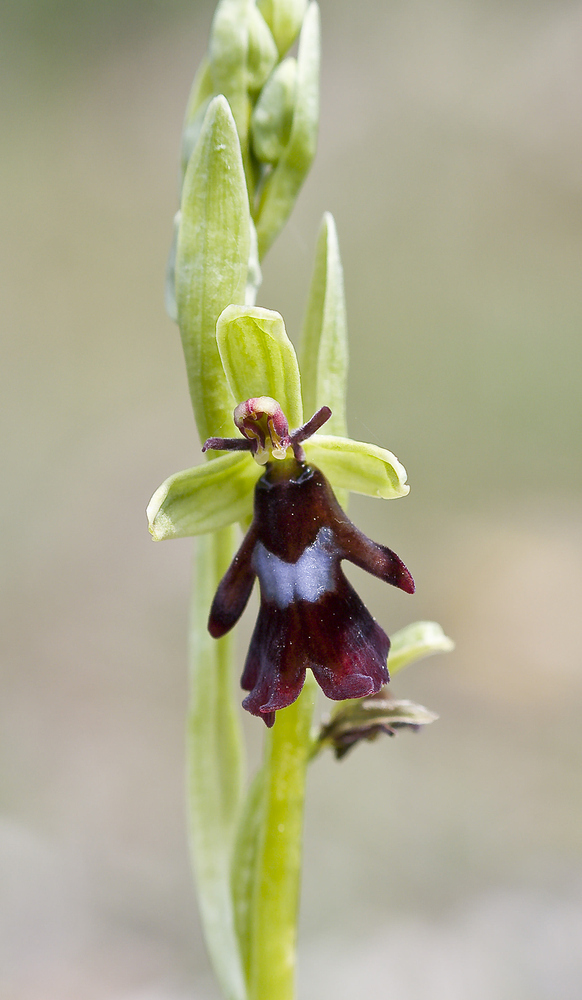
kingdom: Plantae
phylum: Tracheophyta
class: Liliopsida
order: Asparagales
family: Orchidaceae
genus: Ophrys
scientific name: Ophrys insectifera
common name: Fly orchid
